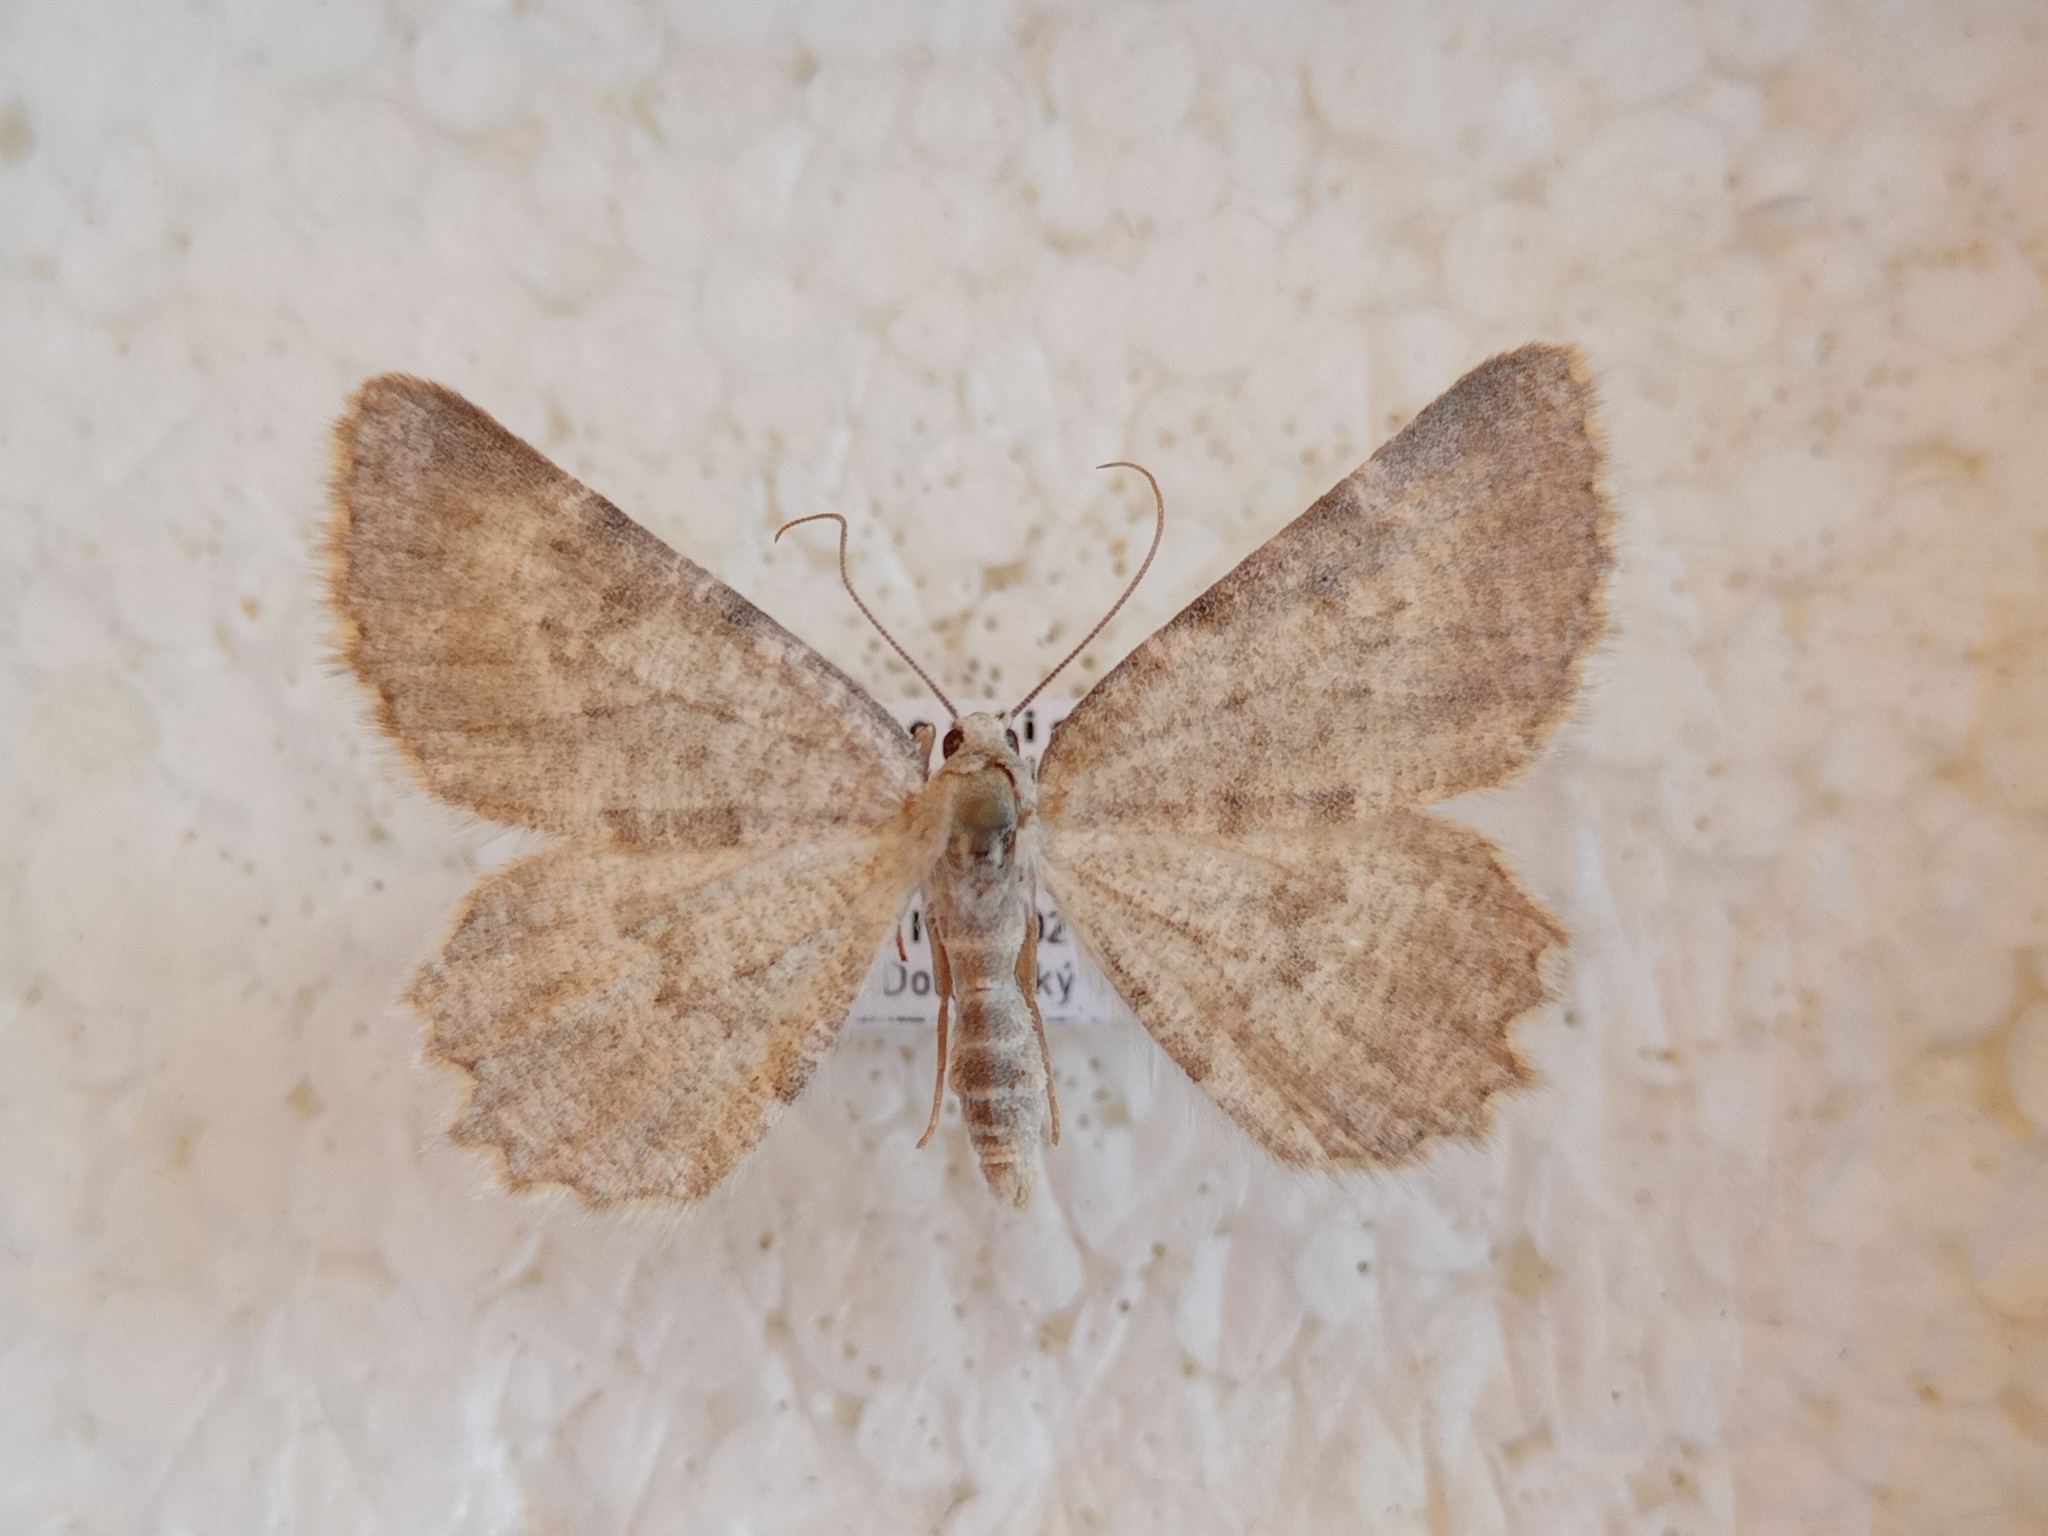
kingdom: Animalia
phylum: Arthropoda
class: Insecta
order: Lepidoptera
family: Geometridae
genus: Charissa
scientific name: Charissa supinaria
